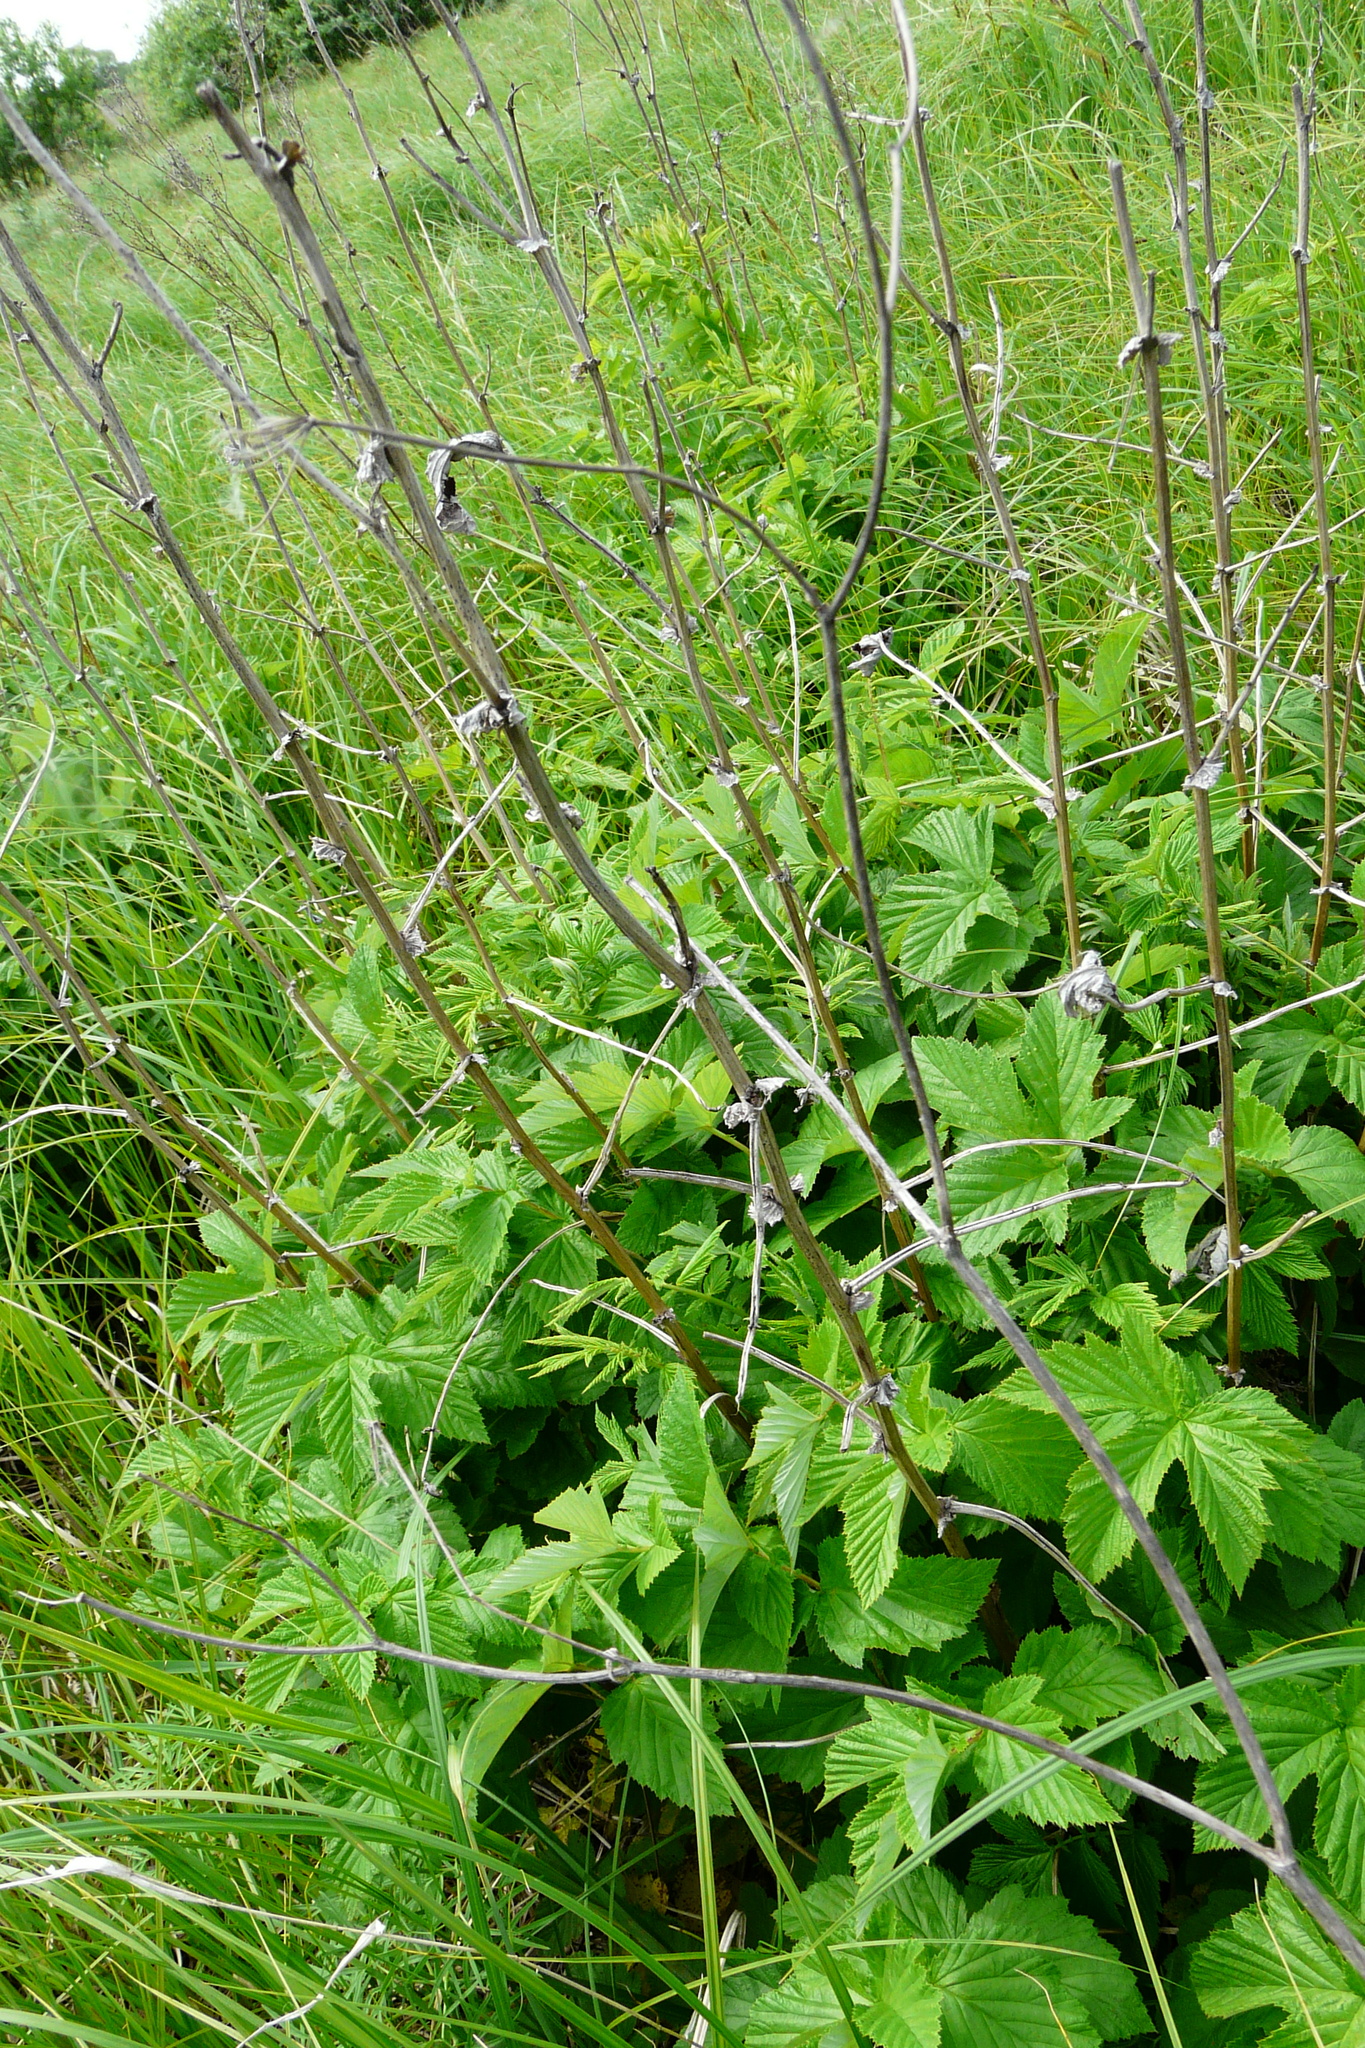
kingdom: Plantae
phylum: Tracheophyta
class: Magnoliopsida
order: Rosales
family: Rosaceae
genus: Filipendula
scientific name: Filipendula ulmaria
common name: Meadowsweet
